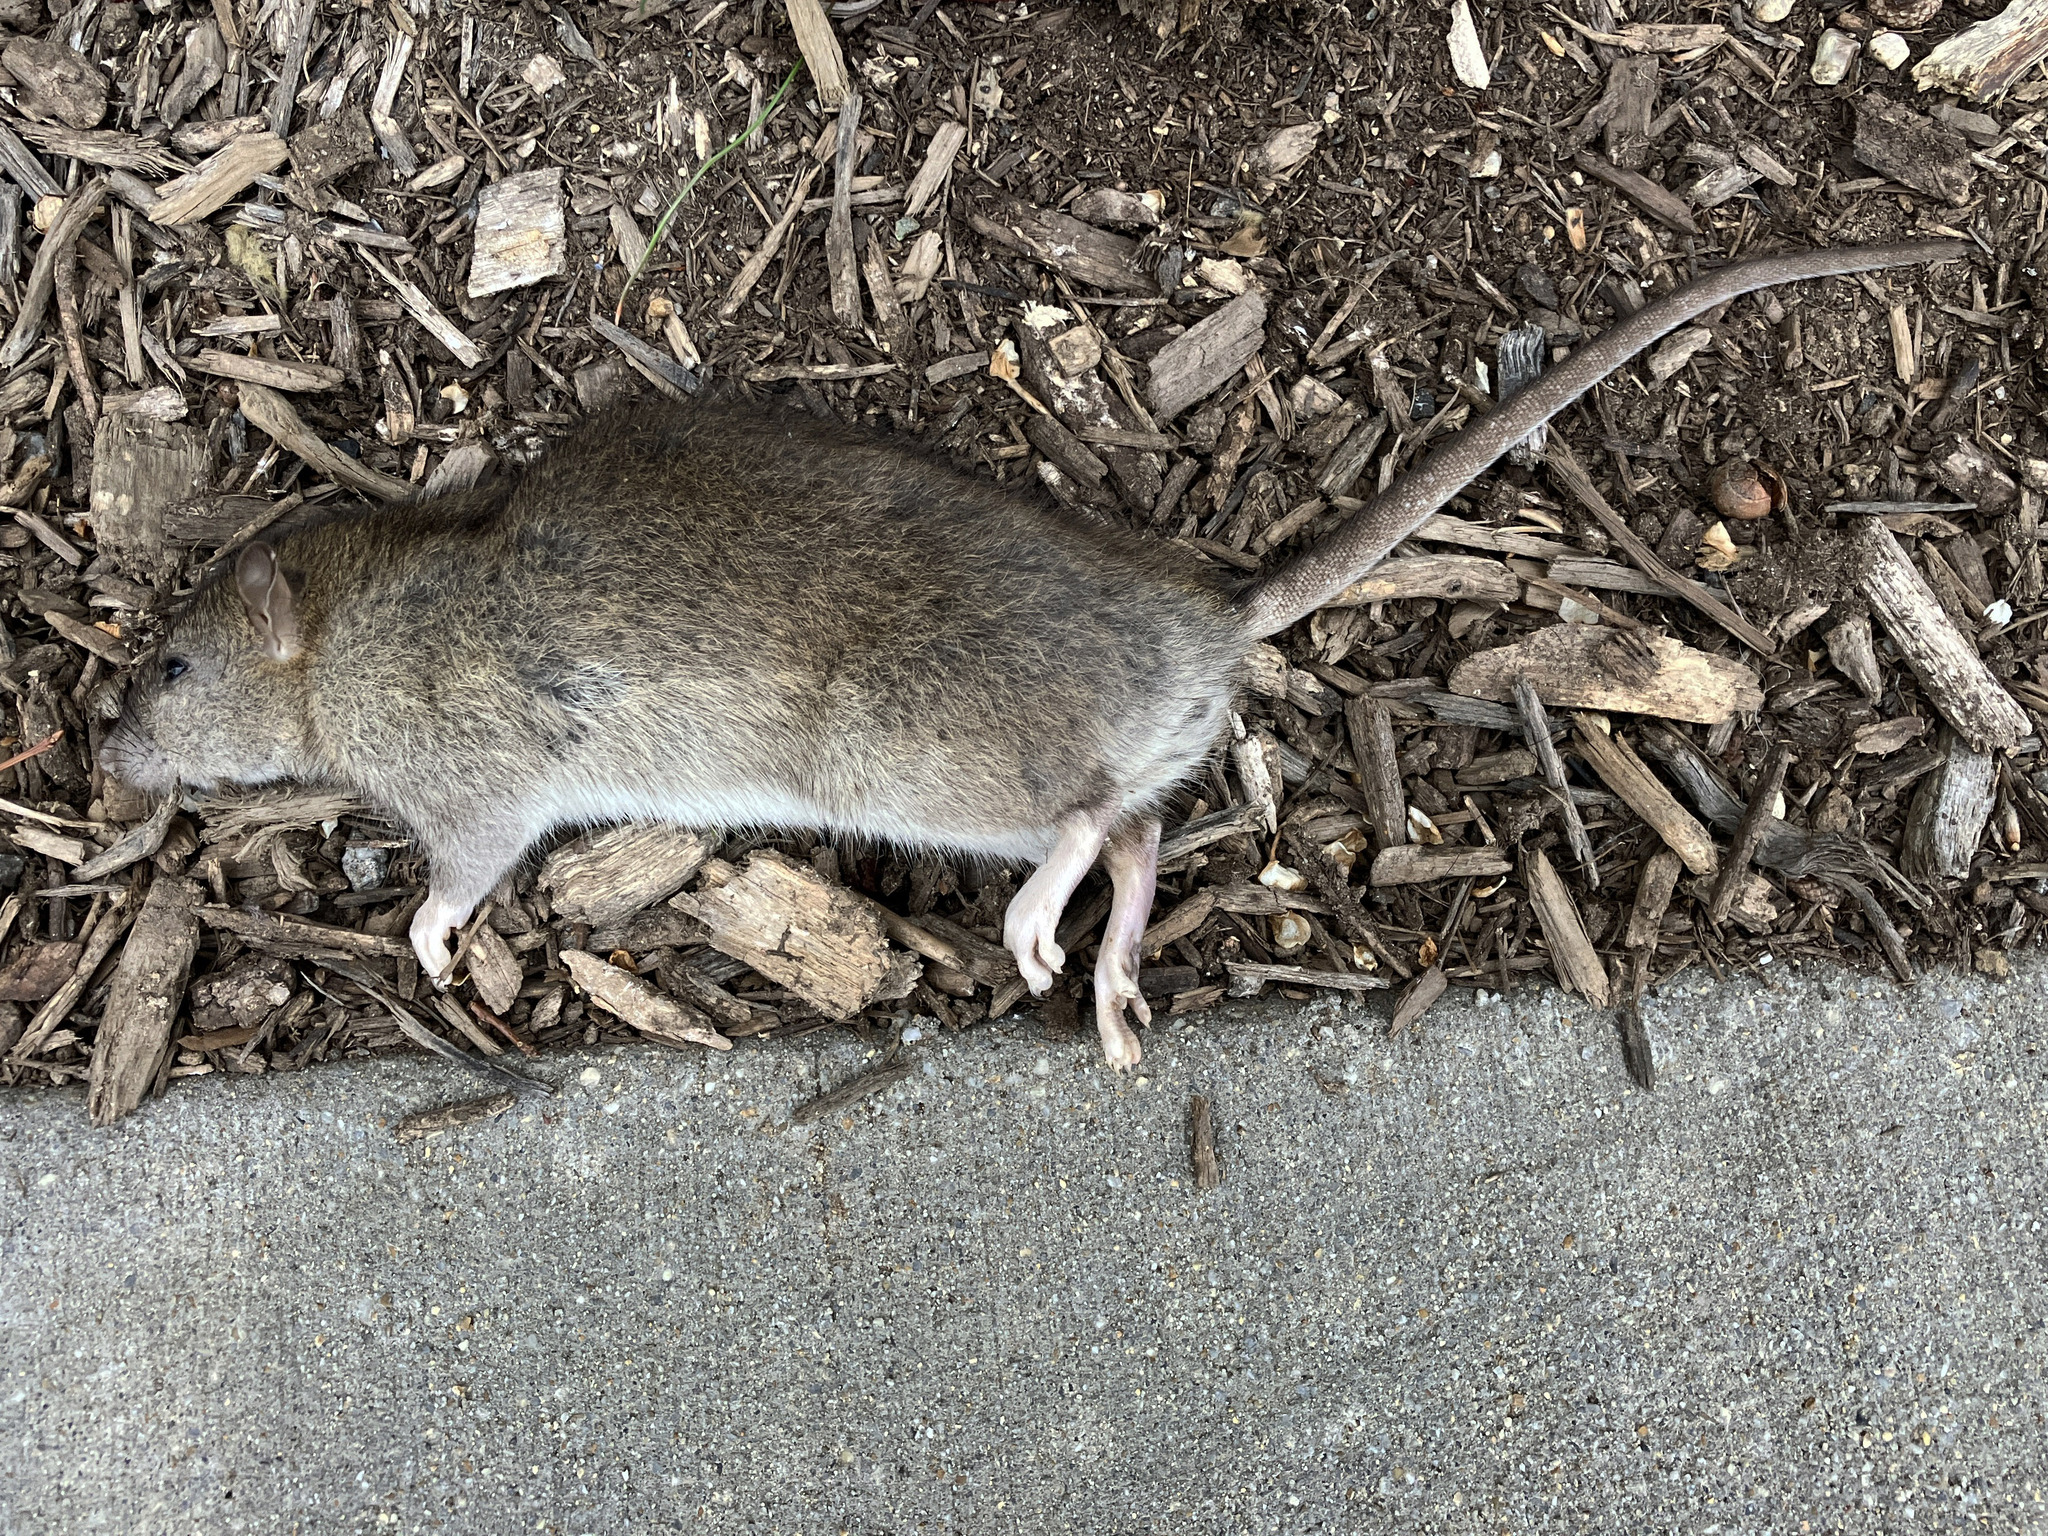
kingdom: Animalia
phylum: Chordata
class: Mammalia
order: Rodentia
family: Muridae
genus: Rattus
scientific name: Rattus norvegicus
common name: Brown rat
